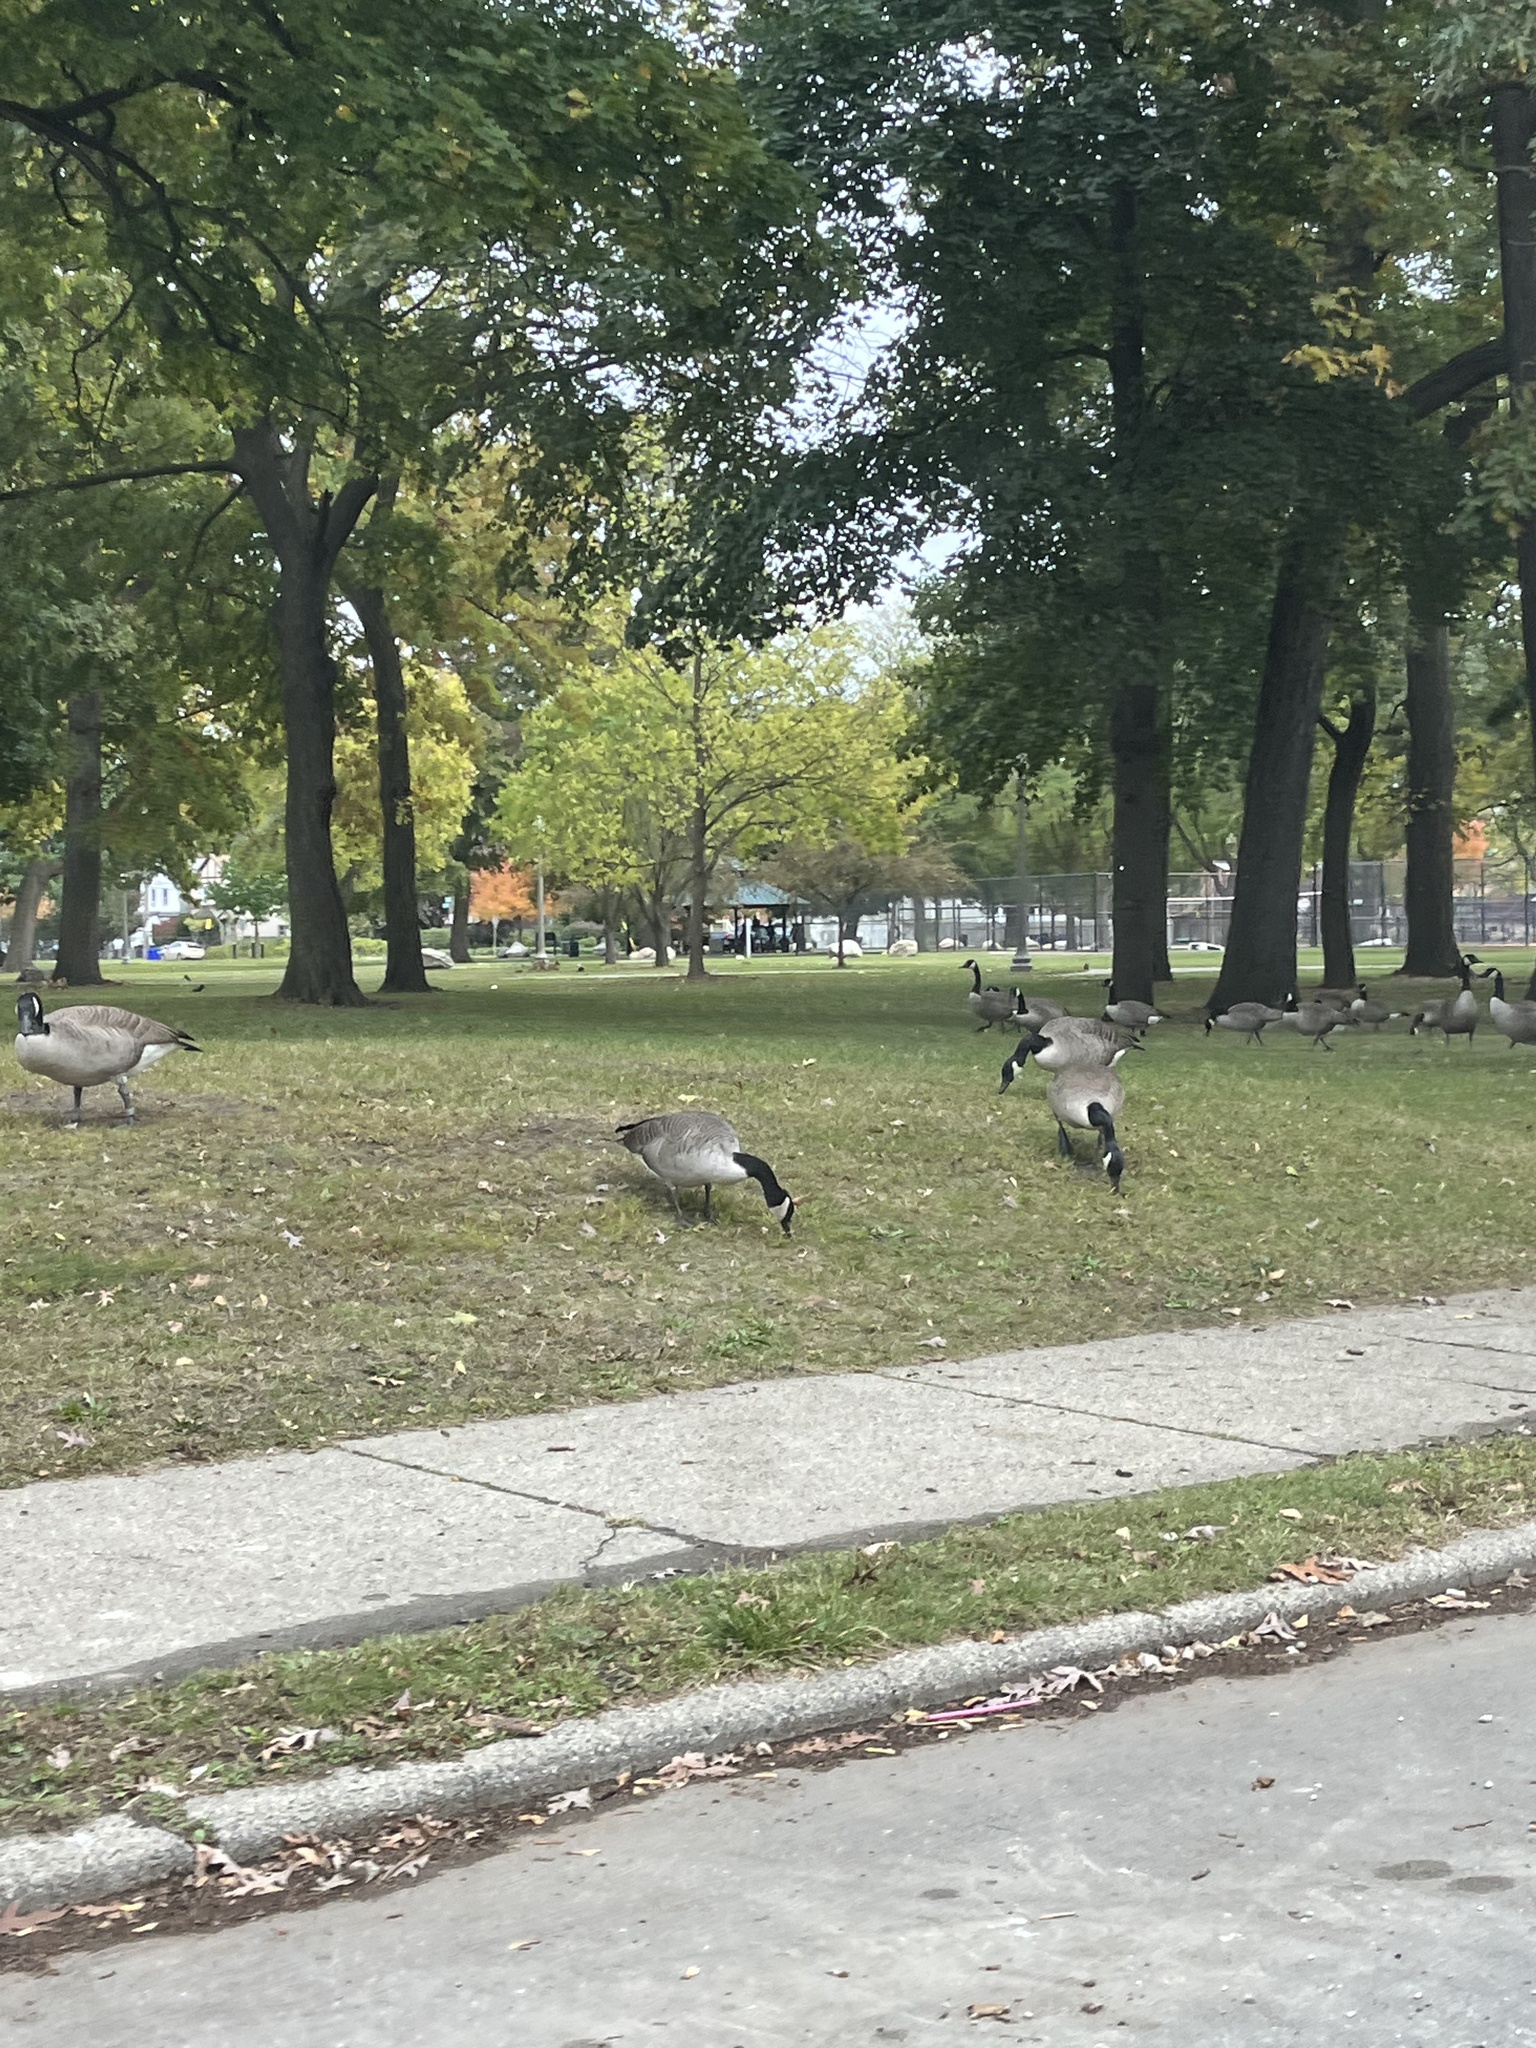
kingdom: Animalia
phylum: Chordata
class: Aves
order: Anseriformes
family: Anatidae
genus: Branta
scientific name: Branta canadensis
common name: Canada goose
